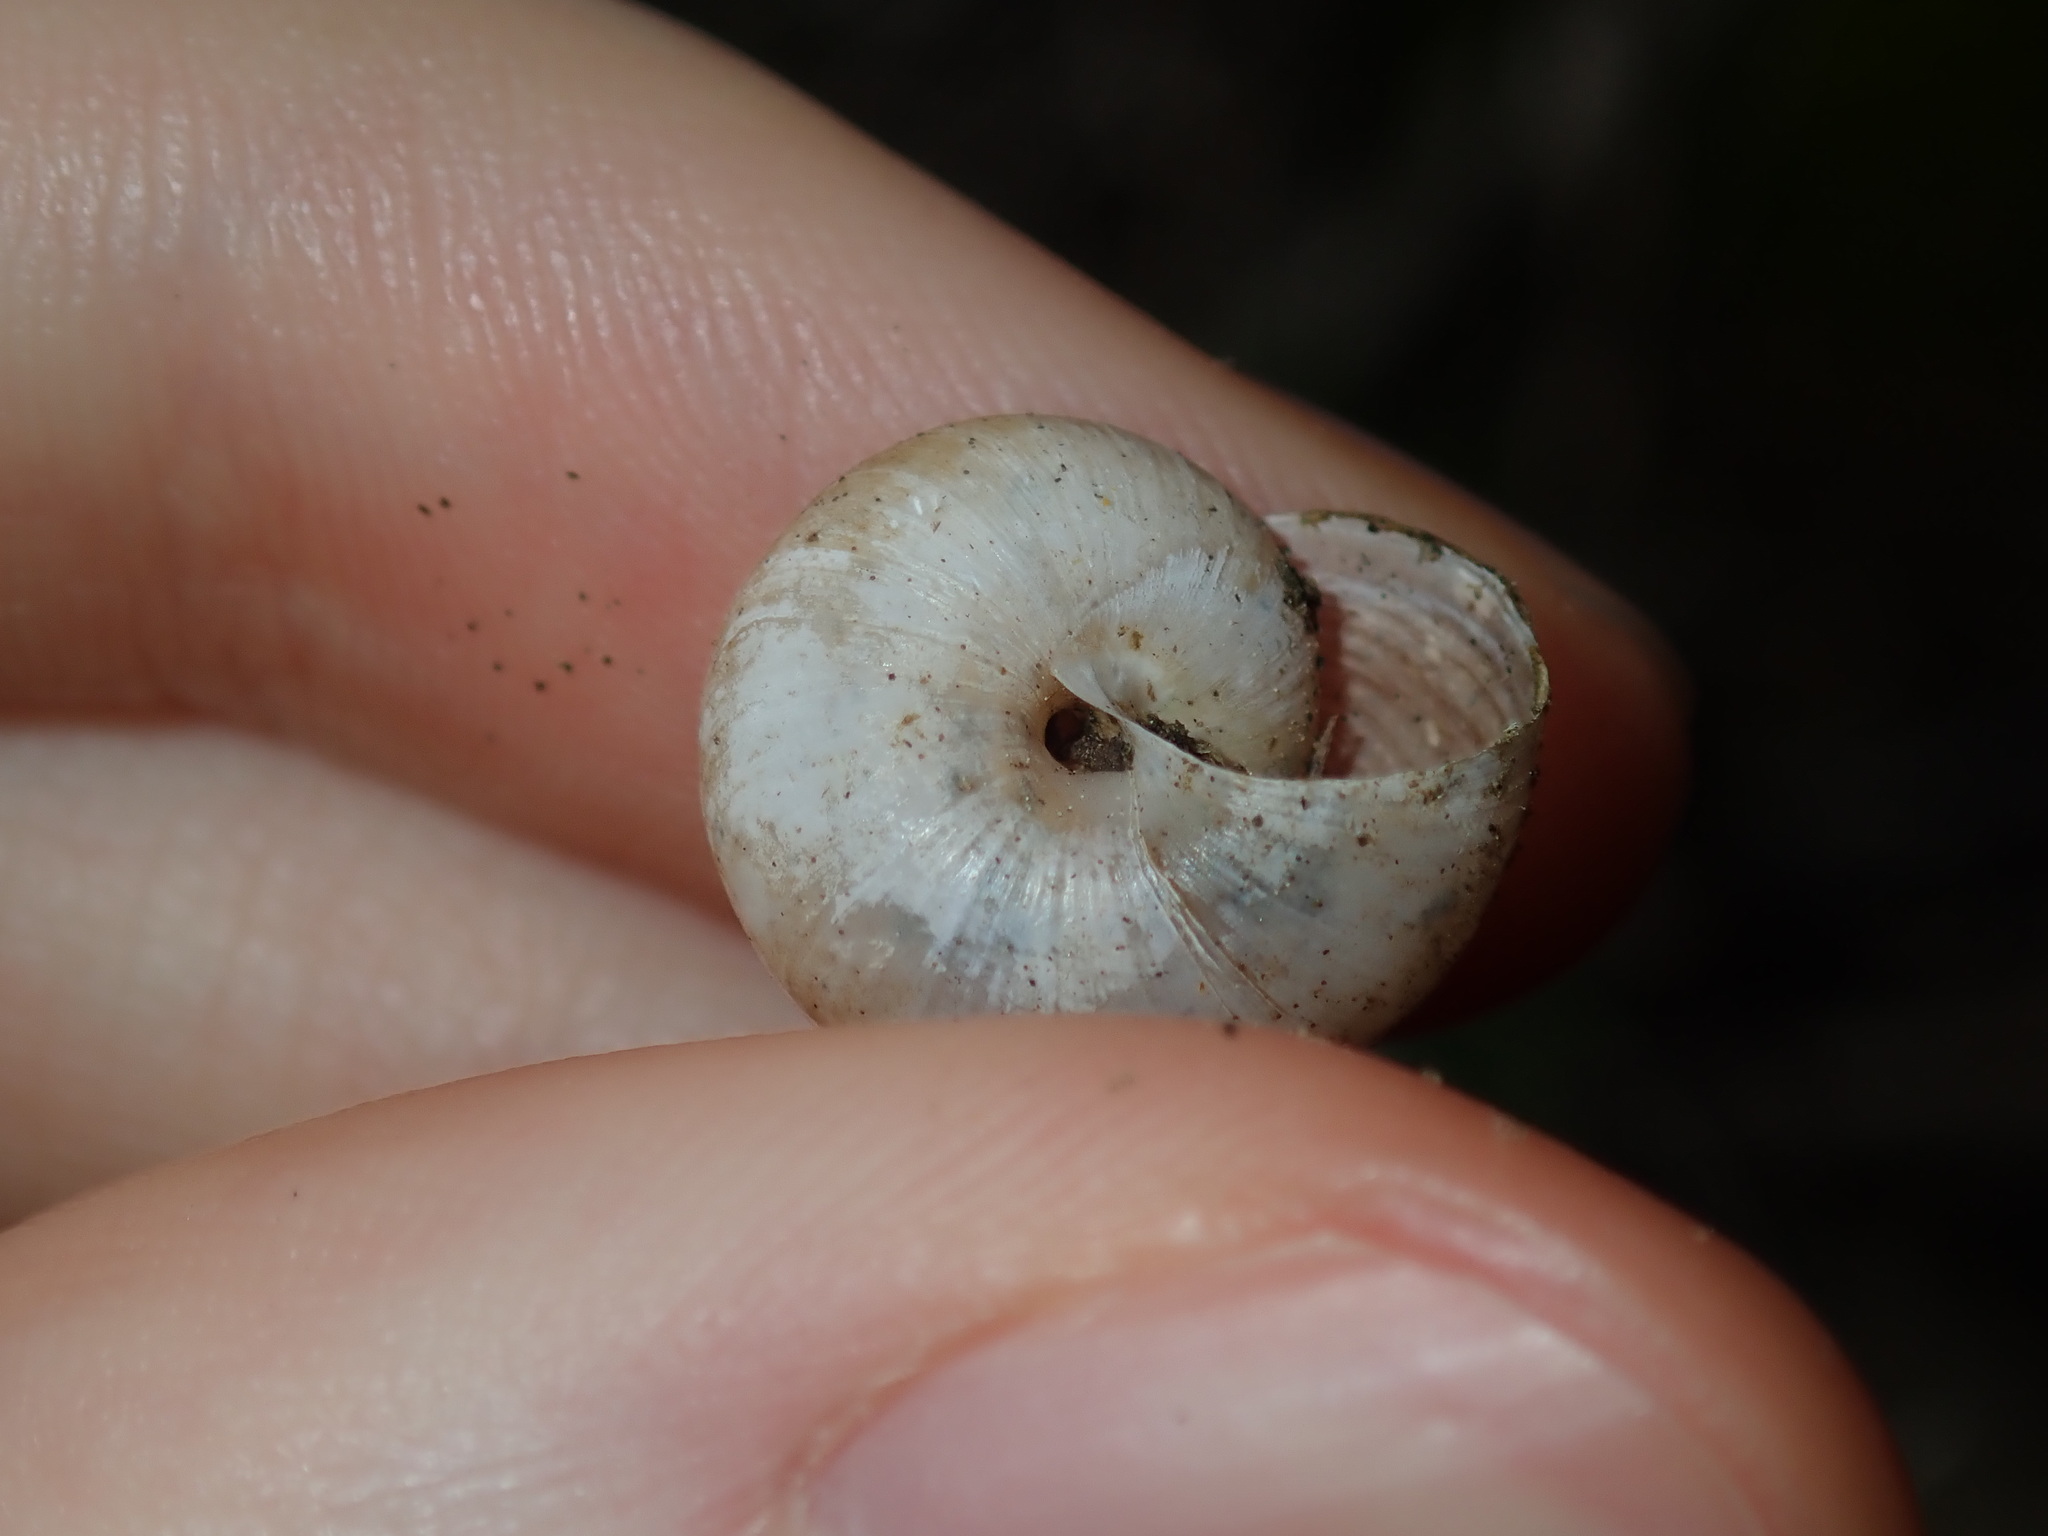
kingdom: Animalia
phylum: Mollusca
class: Gastropoda
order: Stylommatophora
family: Camaenidae
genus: Sauroconcha
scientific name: Sauroconcha sheai
